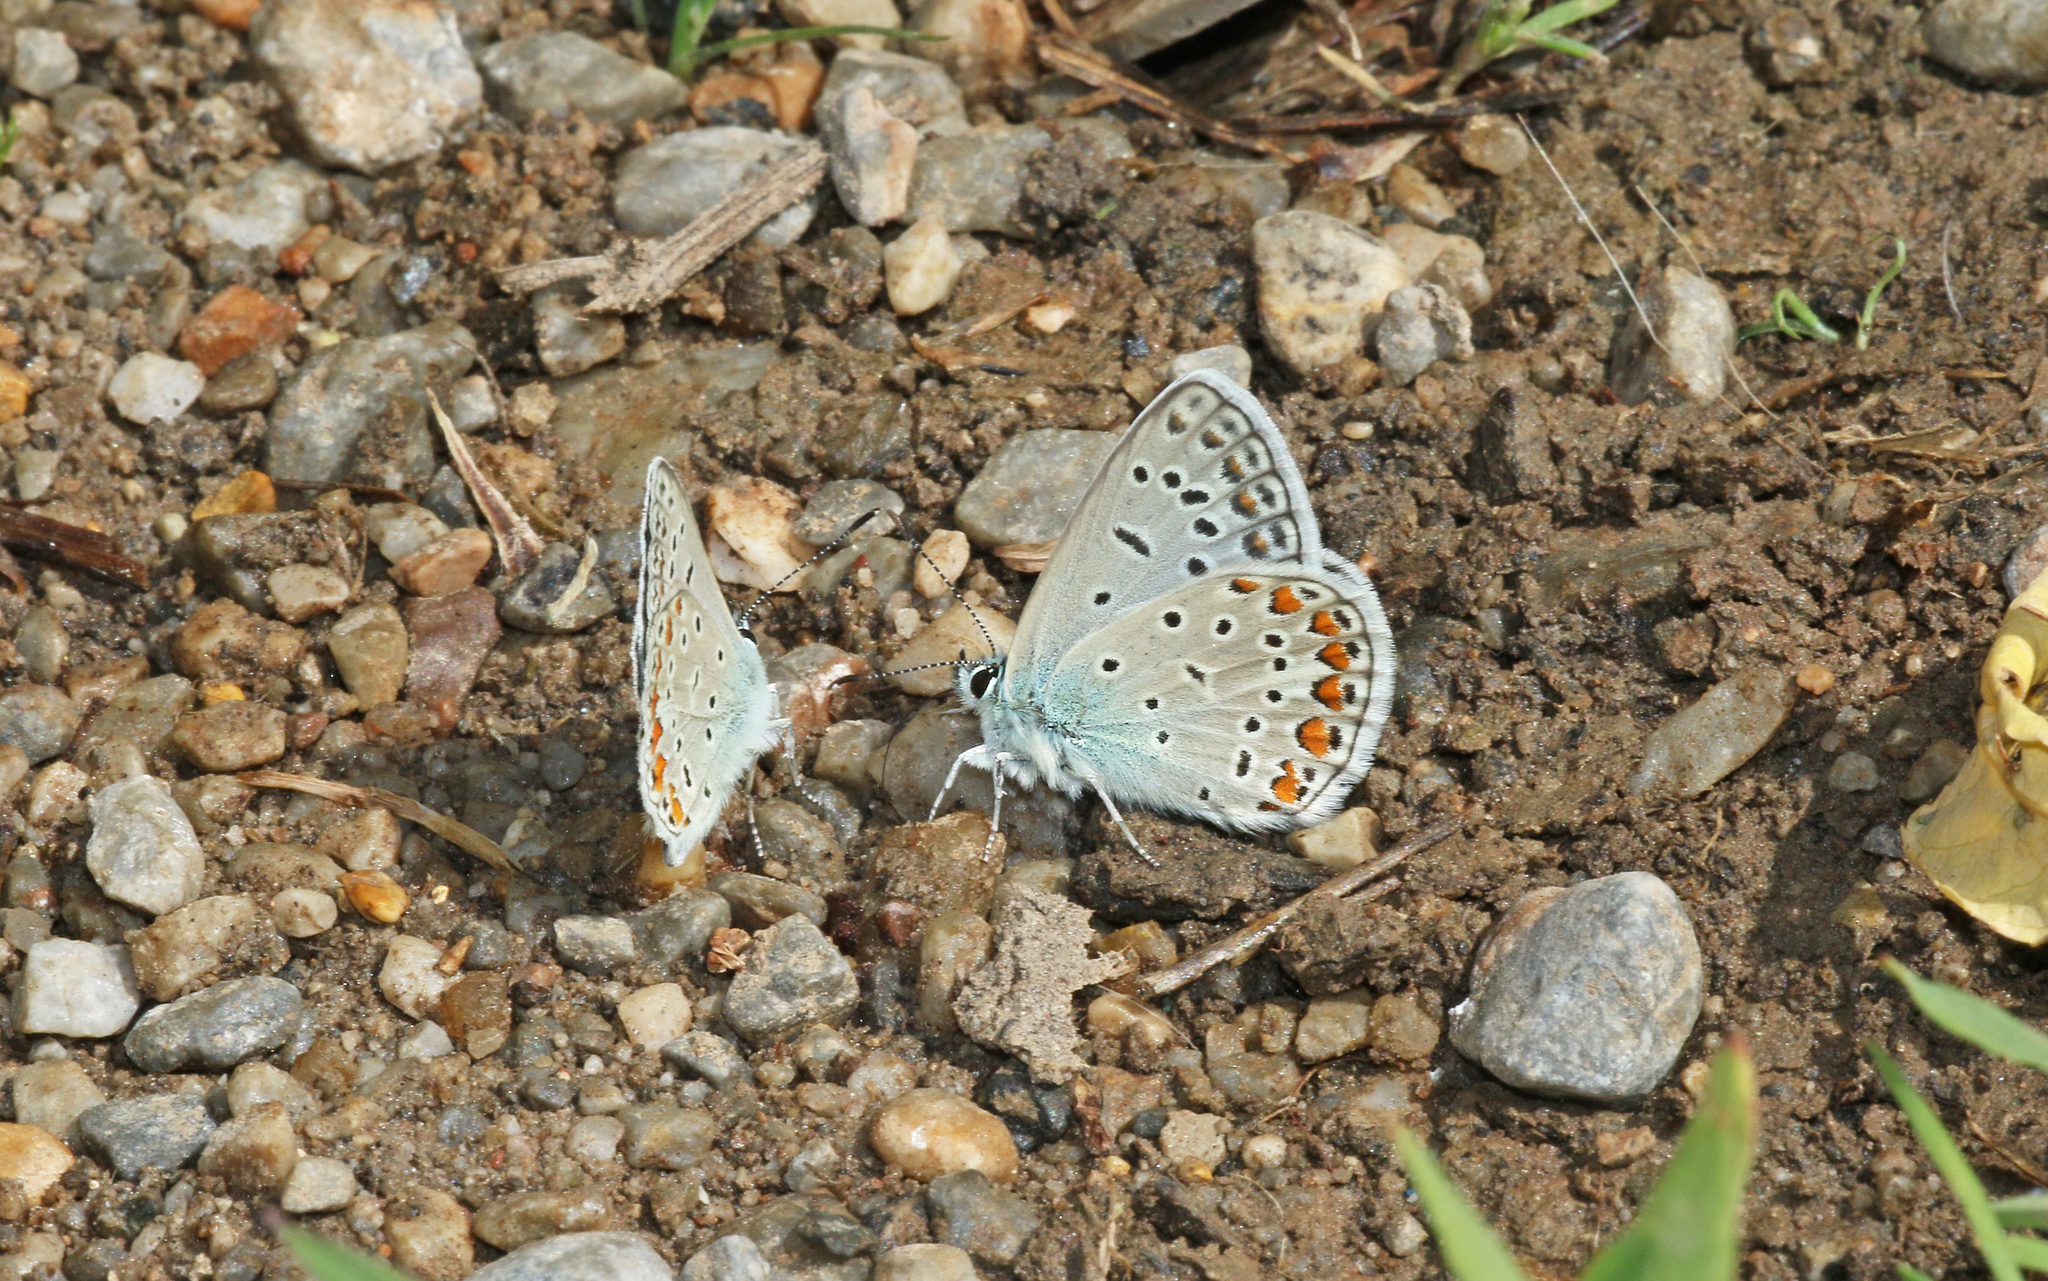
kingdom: Animalia
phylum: Arthropoda
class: Insecta
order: Lepidoptera
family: Lycaenidae
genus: Polyommatus
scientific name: Polyommatus icarus
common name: Common blue
